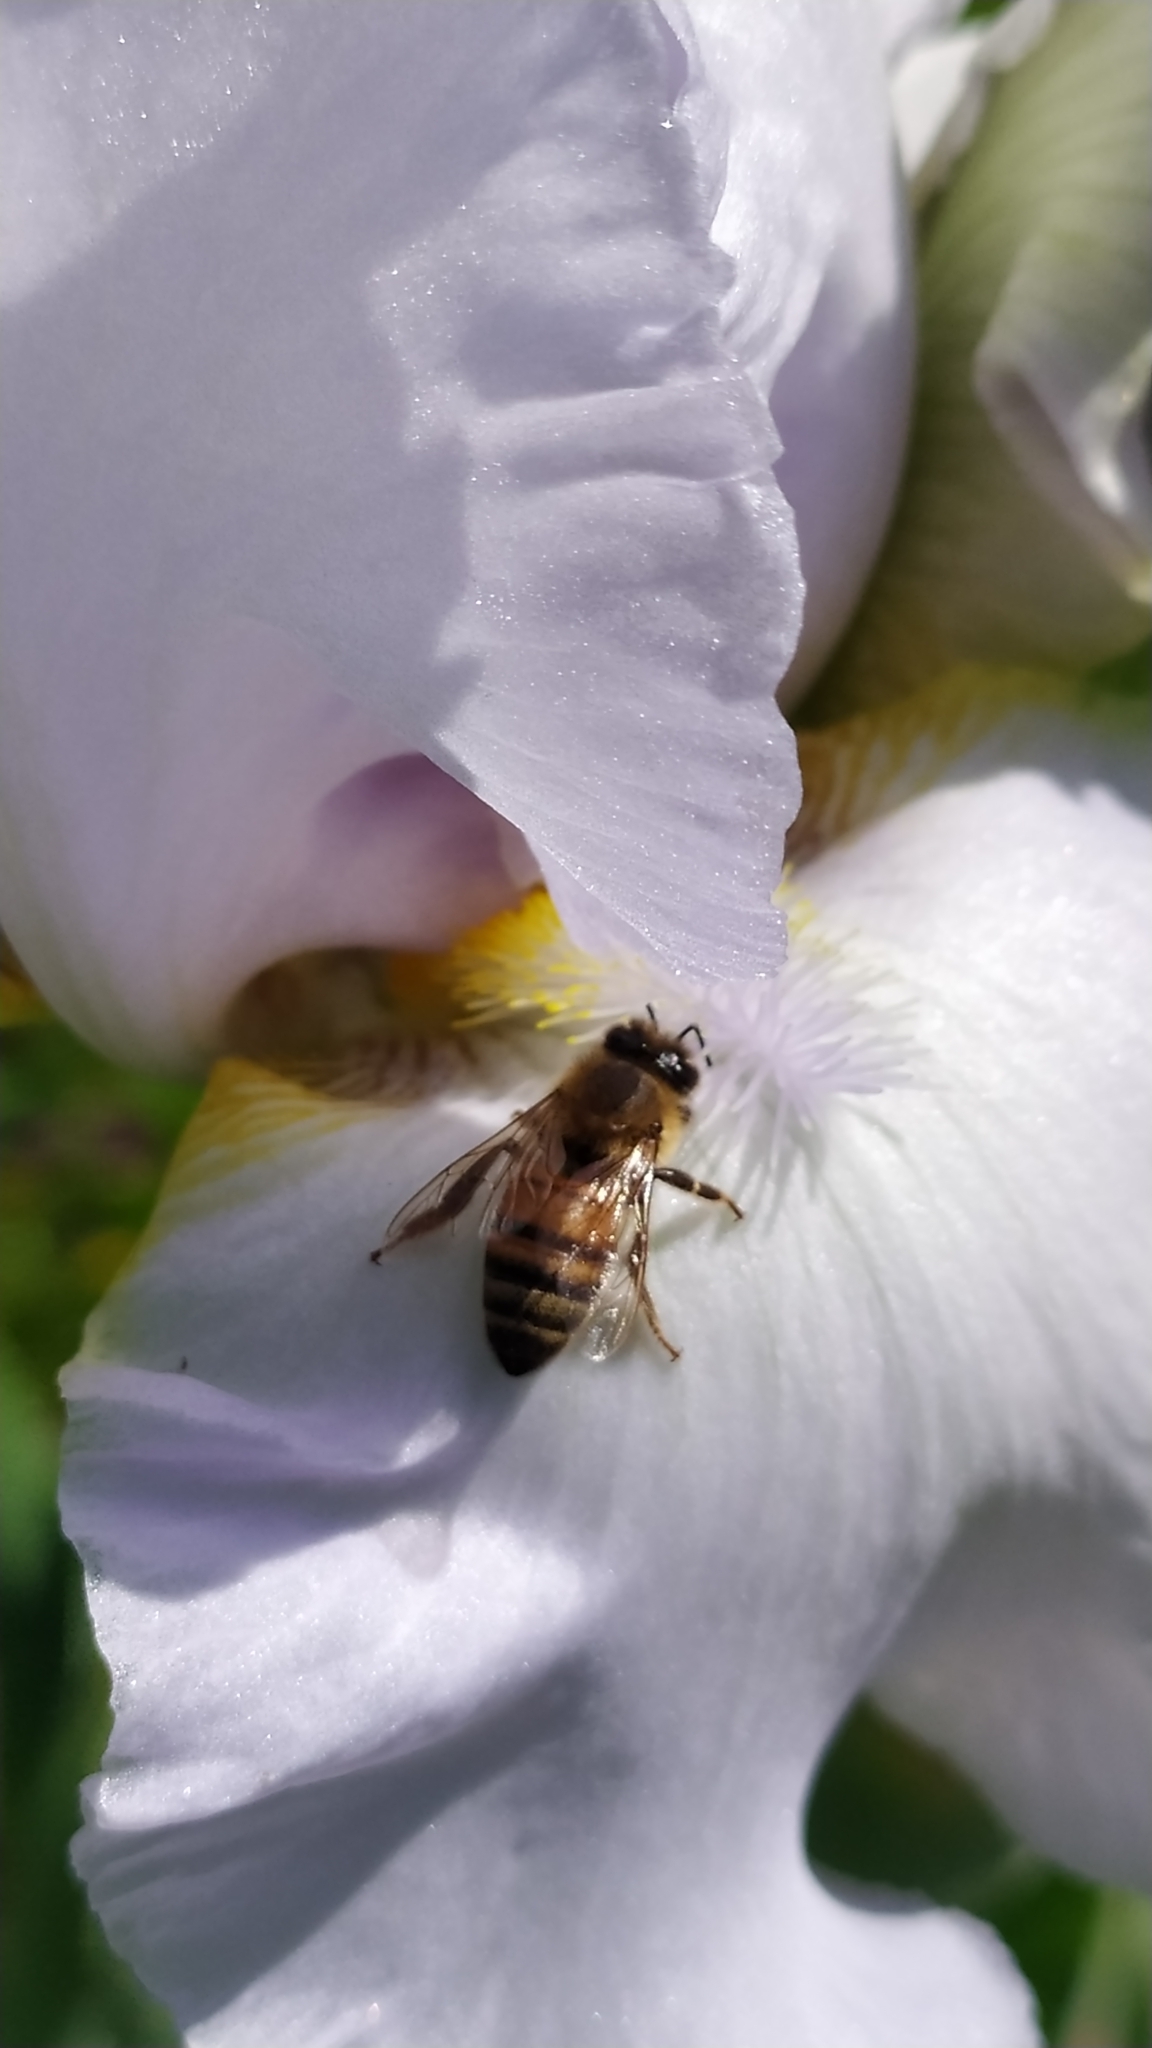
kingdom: Animalia
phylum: Arthropoda
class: Insecta
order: Hymenoptera
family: Apidae
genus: Apis
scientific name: Apis mellifera
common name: Honey bee
